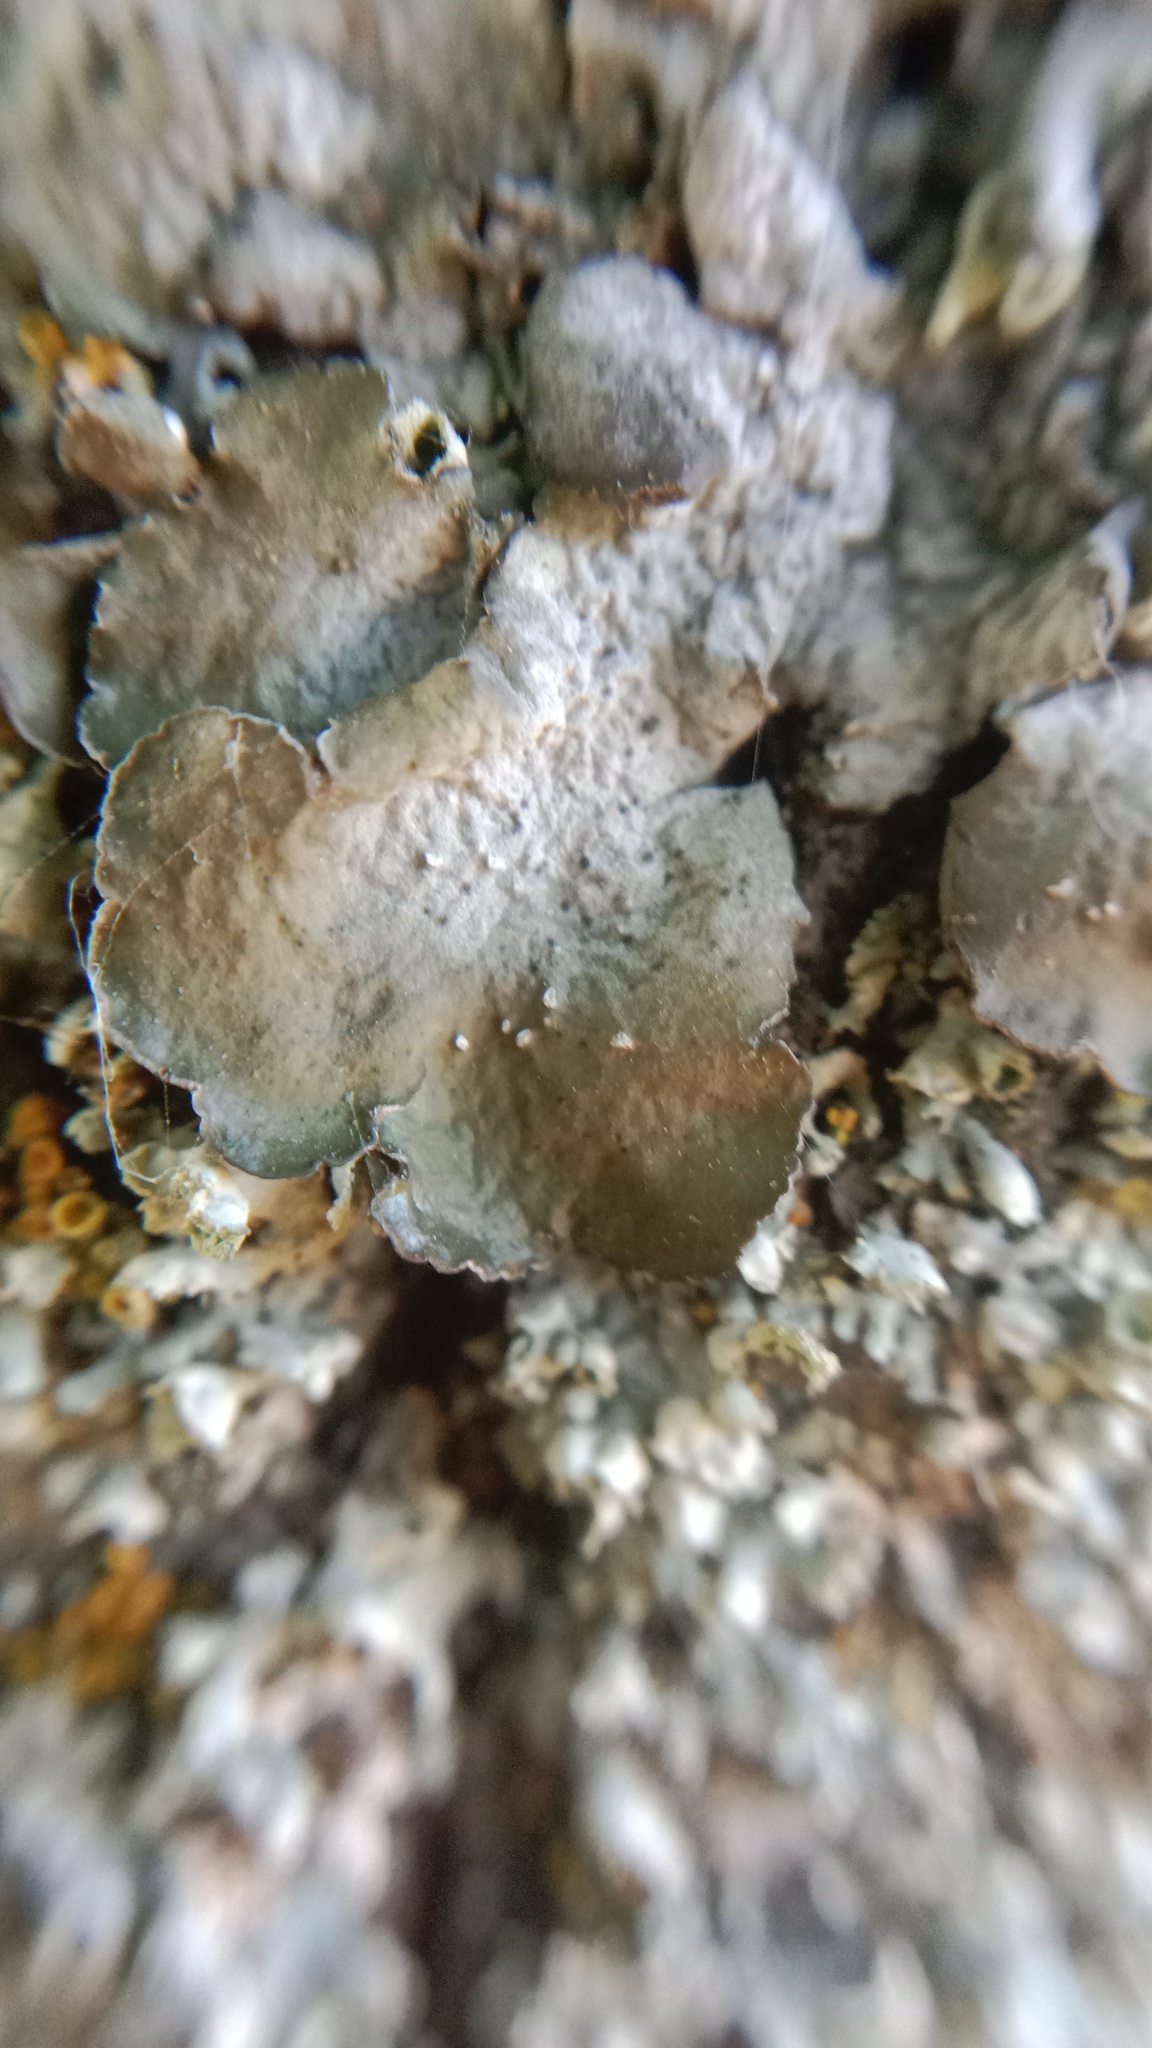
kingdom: Fungi
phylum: Ascomycota
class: Lecanoromycetes
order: Lecanorales
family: Parmeliaceae
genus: Pleurosticta
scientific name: Pleurosticta acetabulum
